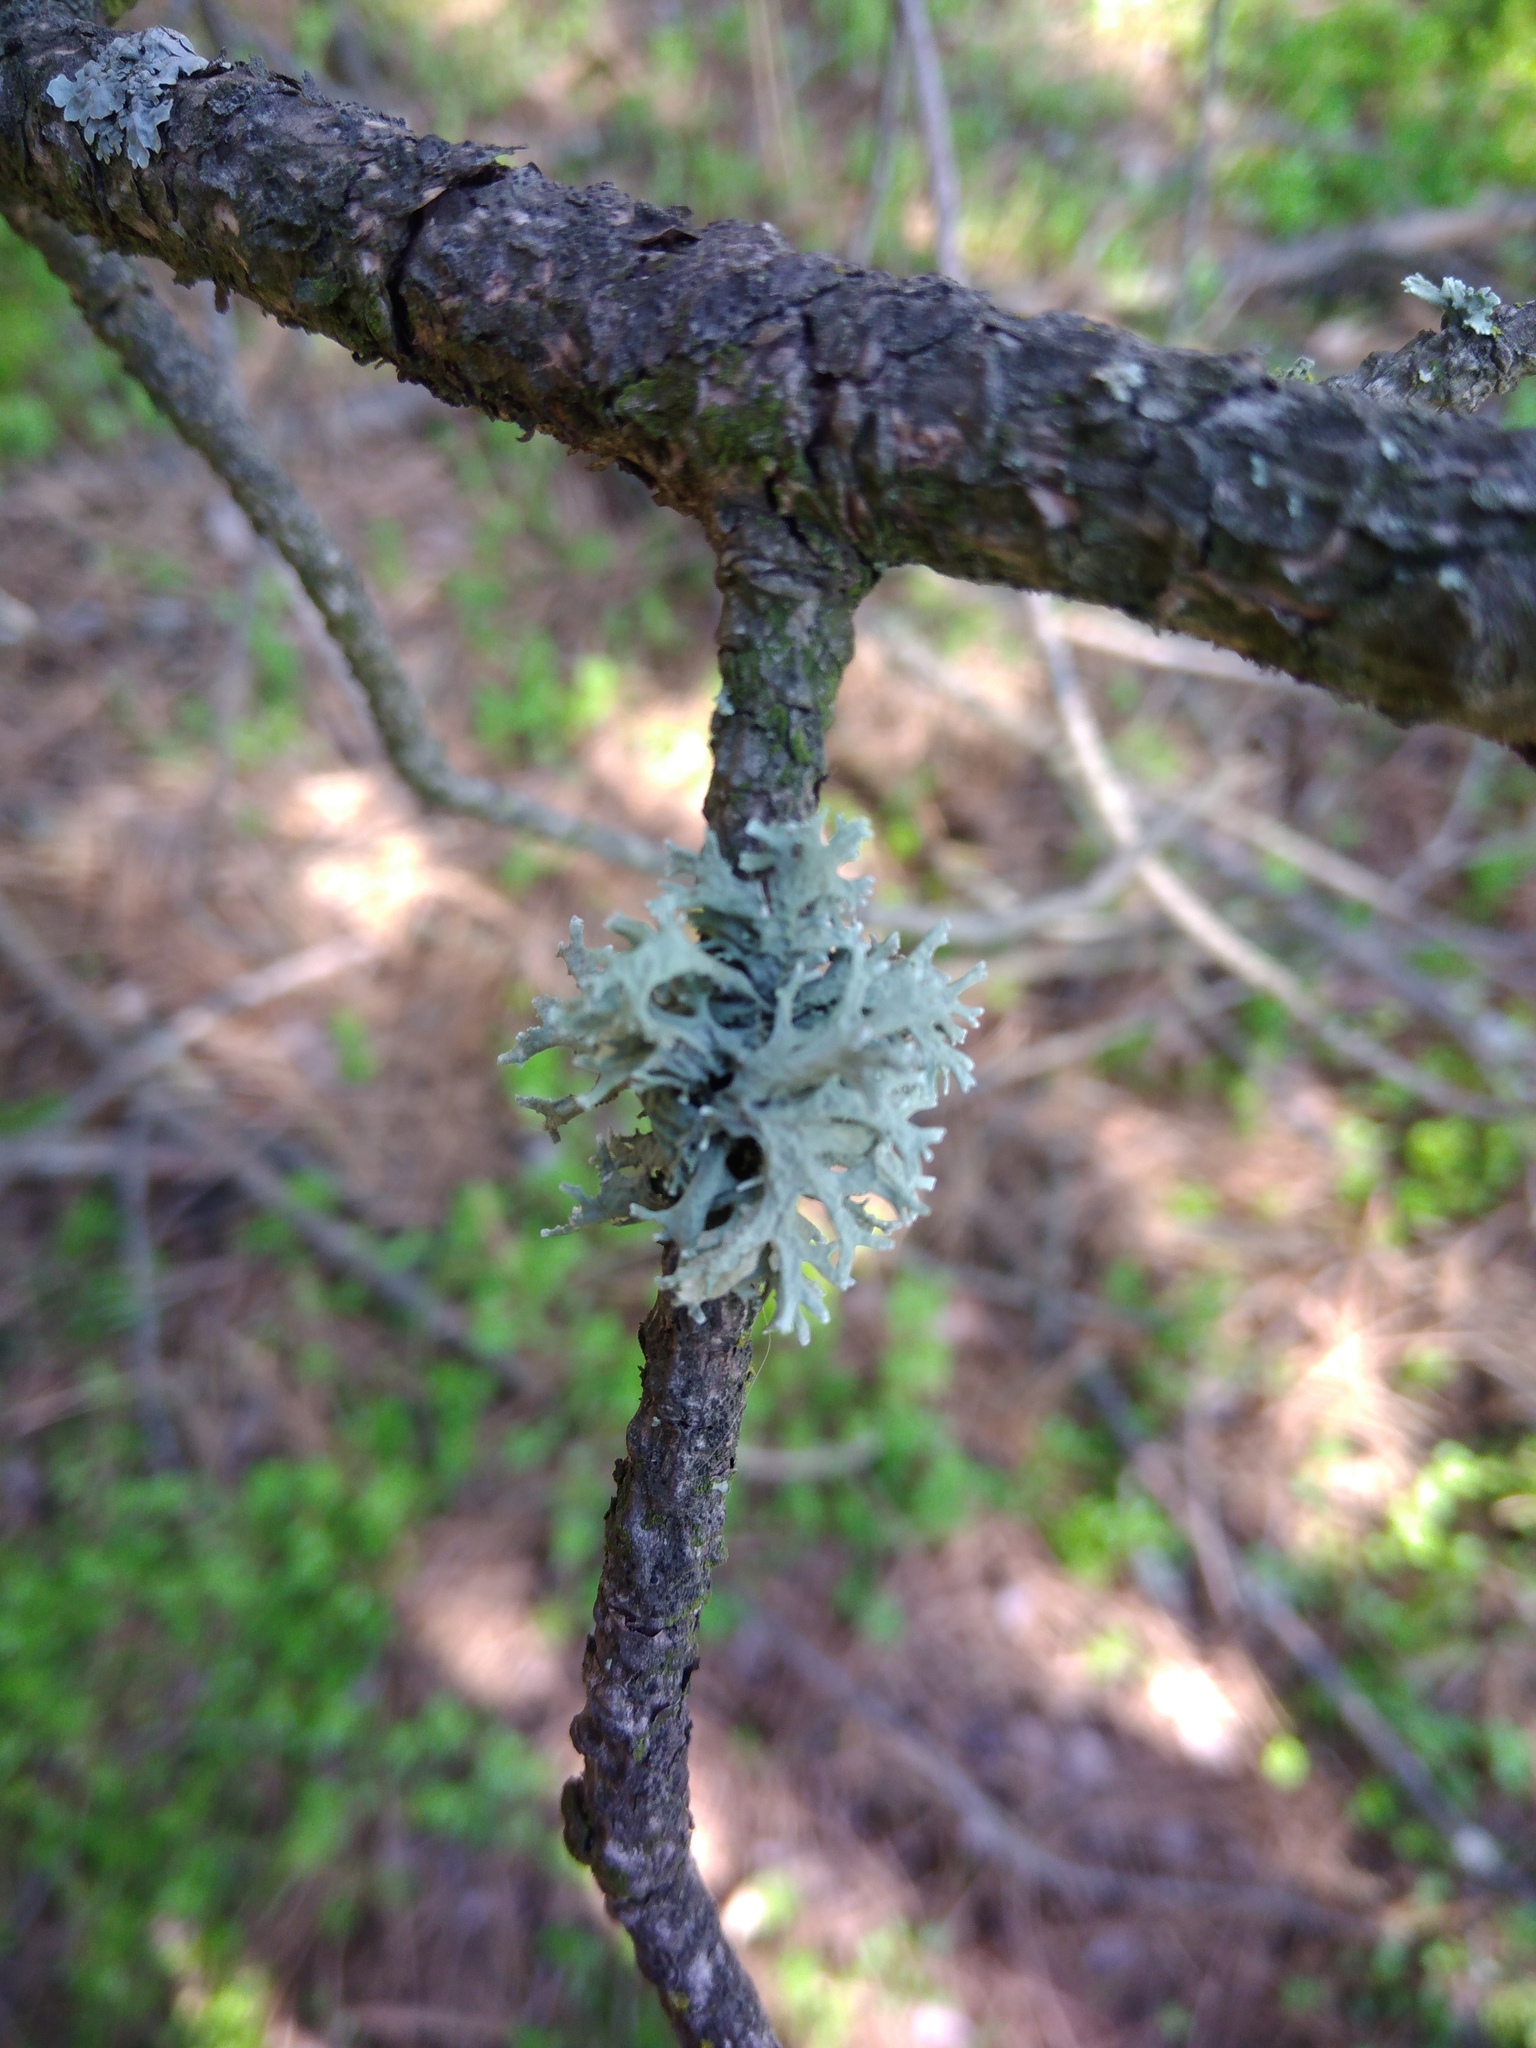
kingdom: Fungi
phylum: Ascomycota
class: Lecanoromycetes
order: Lecanorales
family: Parmeliaceae
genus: Evernia
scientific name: Evernia prunastri
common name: Oak moss
